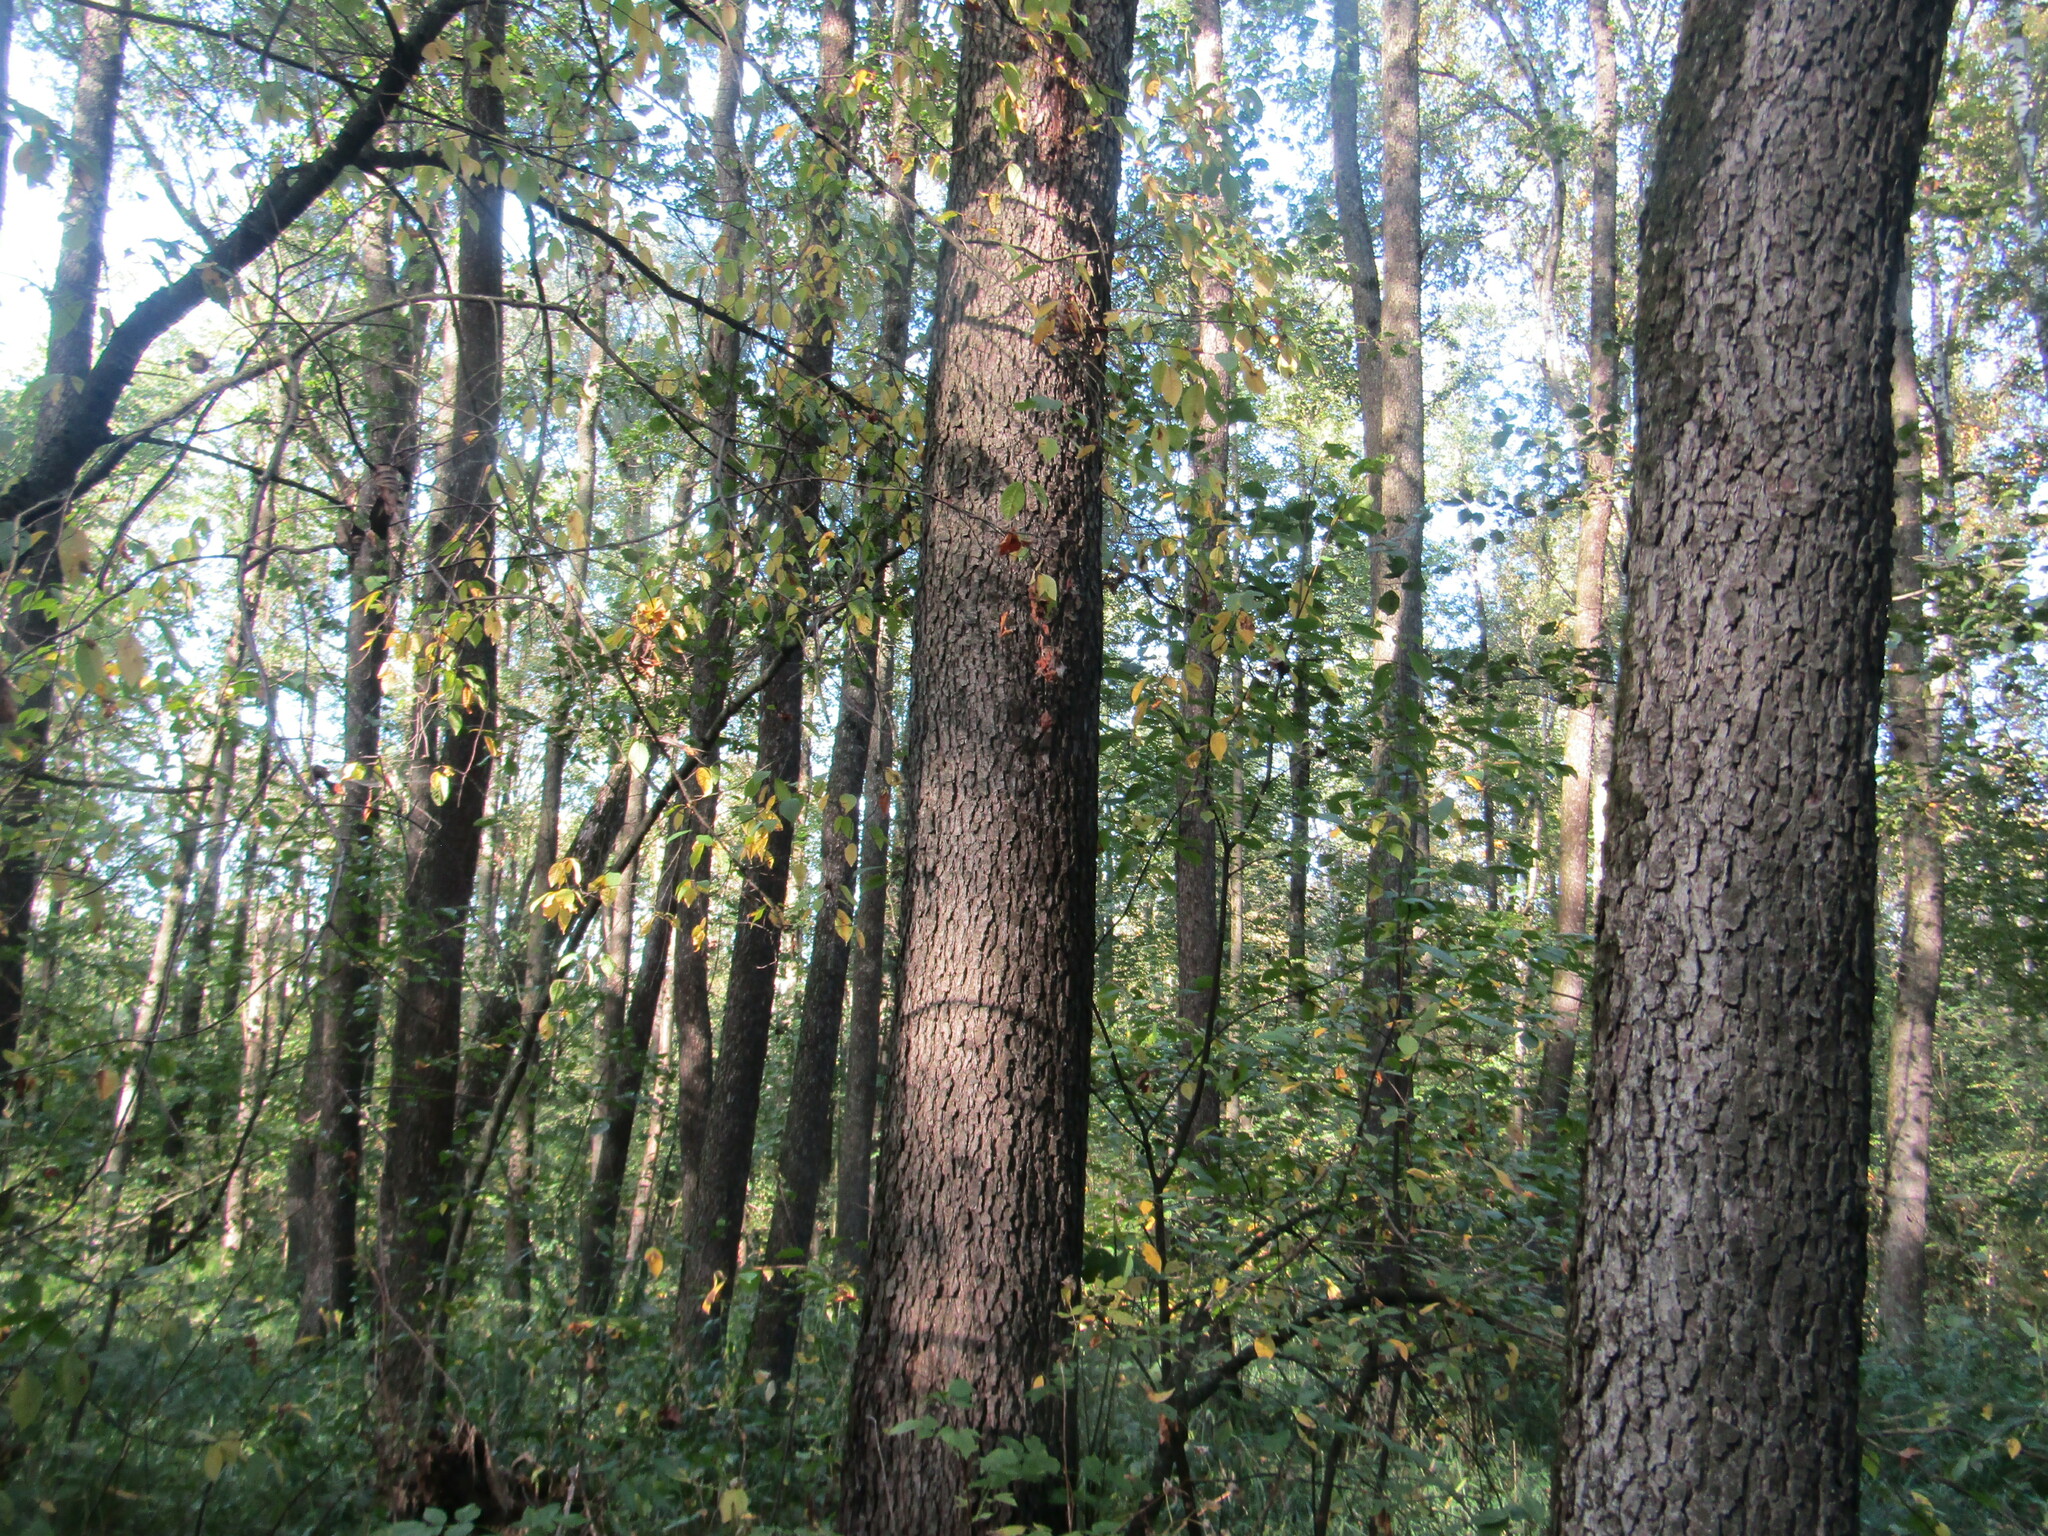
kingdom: Plantae
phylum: Tracheophyta
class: Magnoliopsida
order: Fagales
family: Betulaceae
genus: Alnus
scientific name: Alnus glutinosa
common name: Black alder
